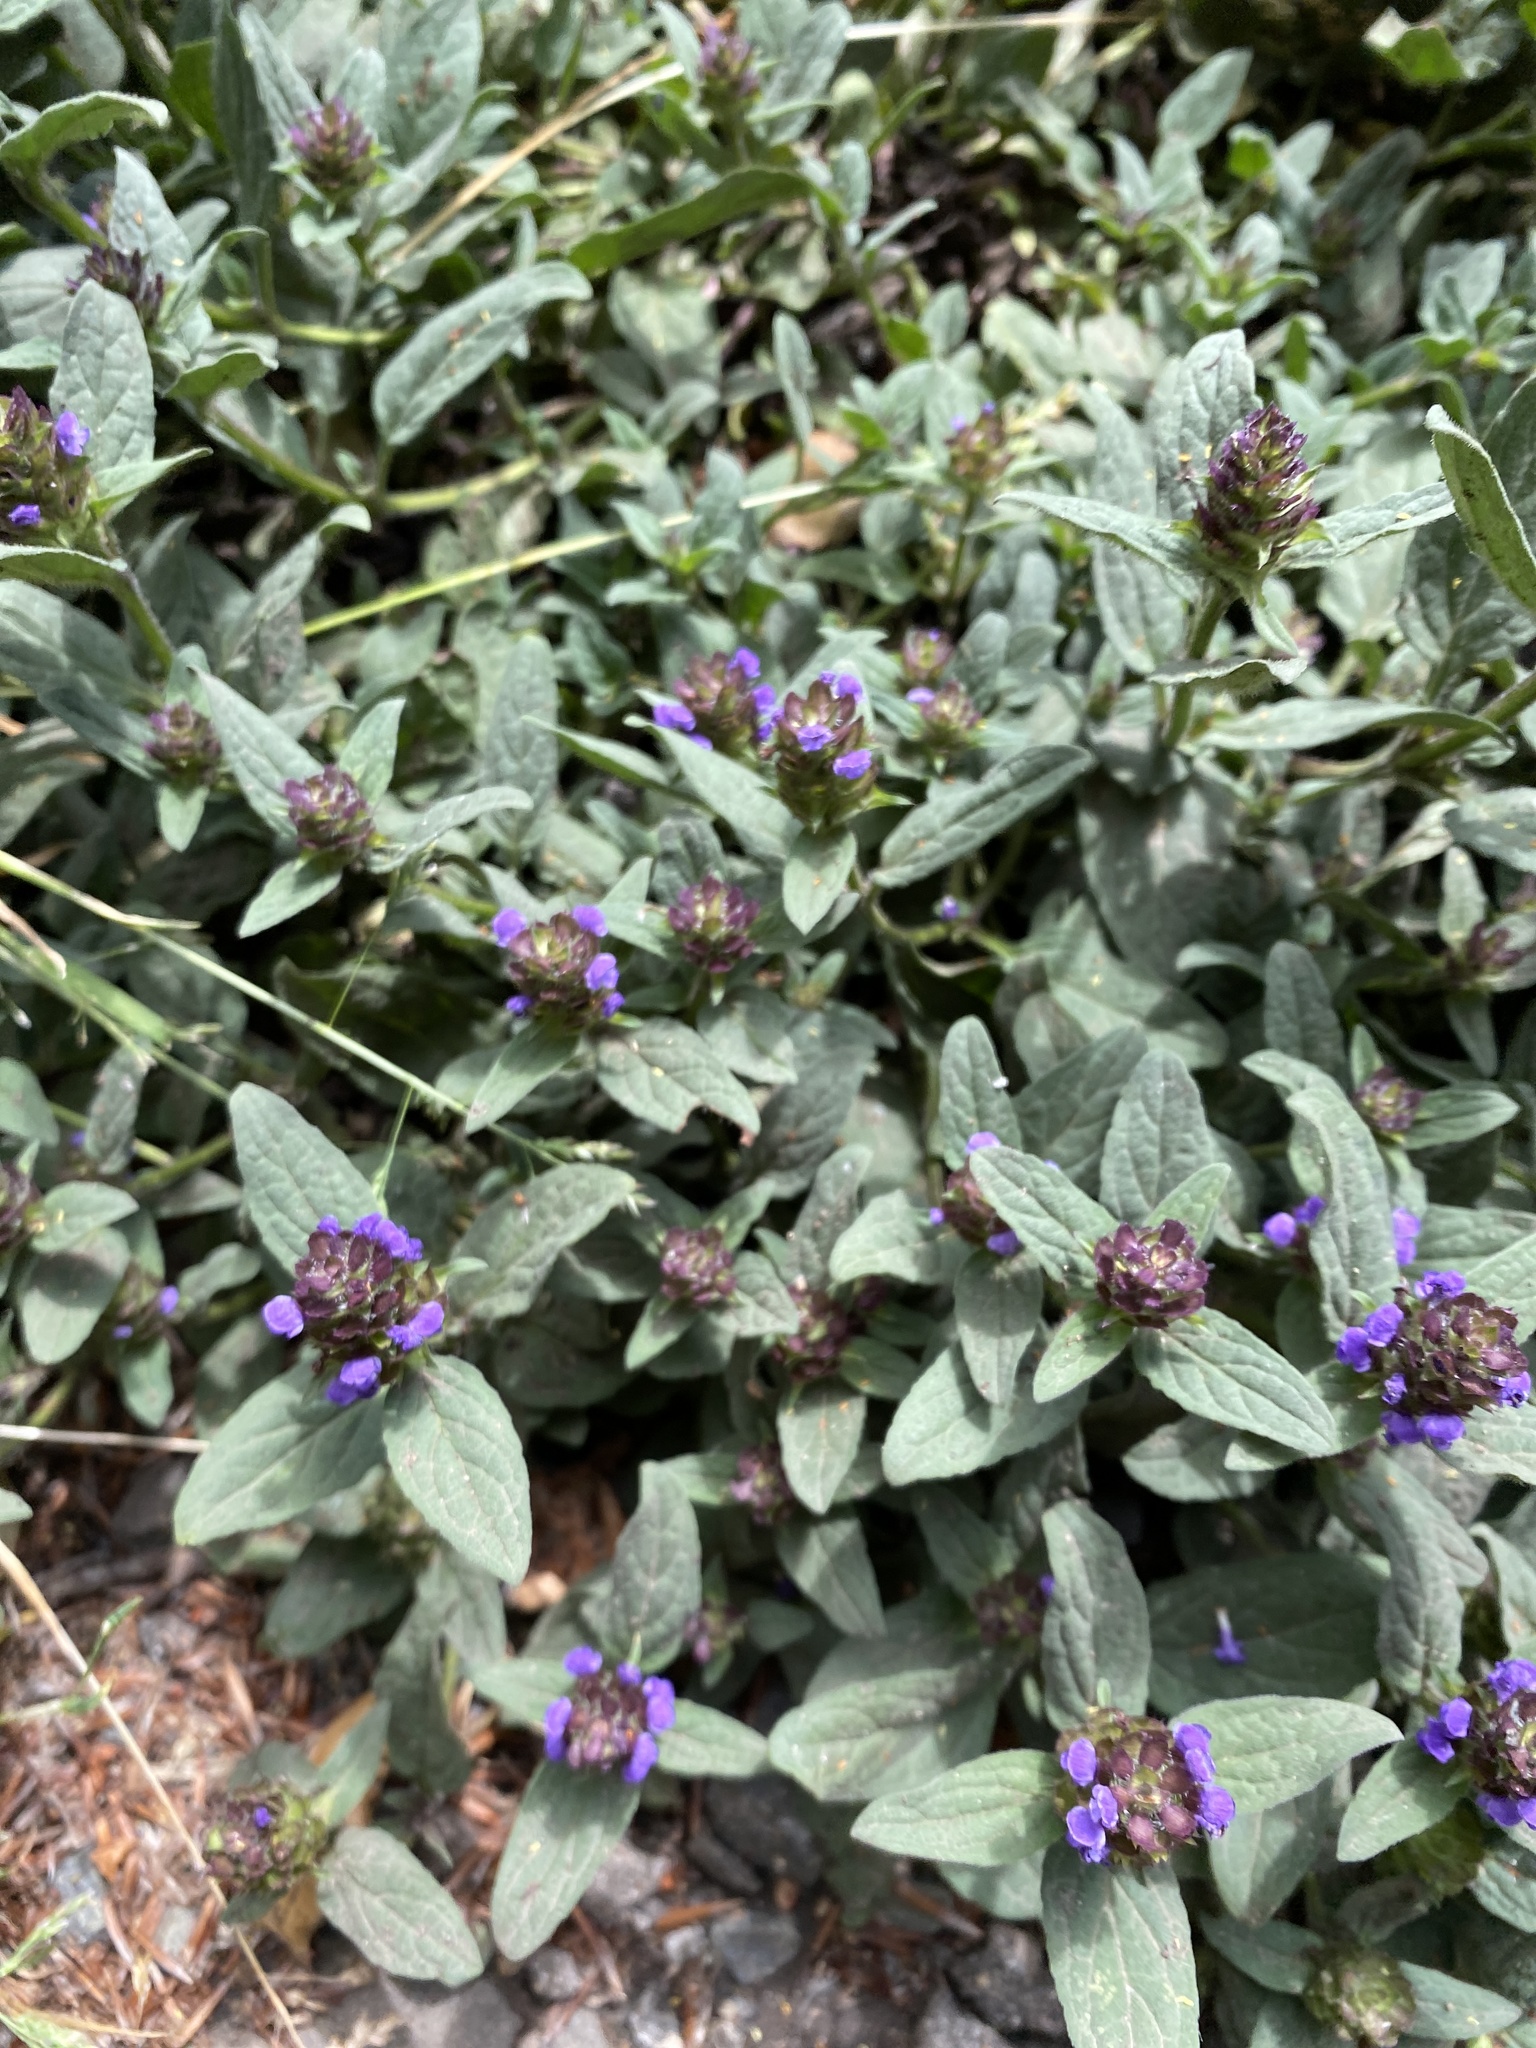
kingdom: Plantae
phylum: Tracheophyta
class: Magnoliopsida
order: Lamiales
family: Lamiaceae
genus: Prunella
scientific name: Prunella vulgaris
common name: Heal-all
